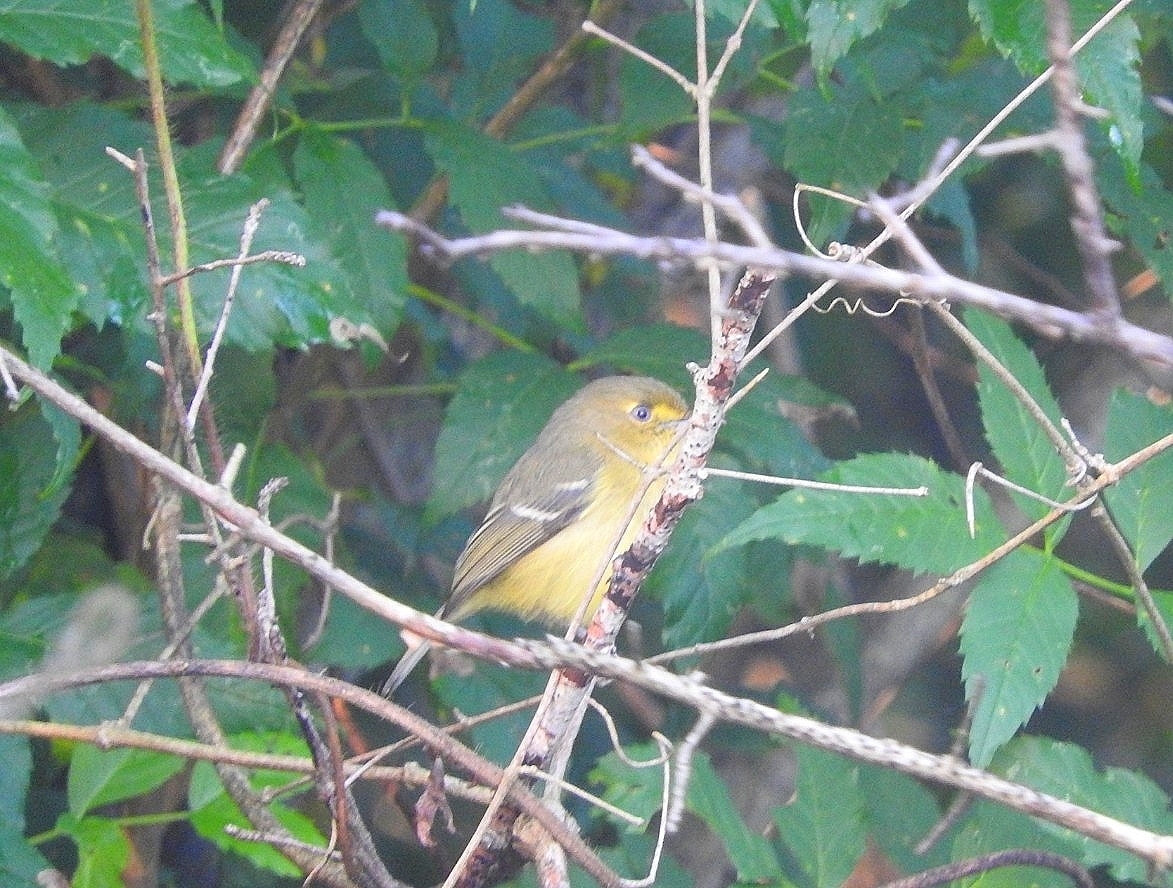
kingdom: Animalia
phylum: Chordata
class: Aves
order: Passeriformes
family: Vireonidae
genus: Vireo
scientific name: Vireo griseus
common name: White-eyed vireo
